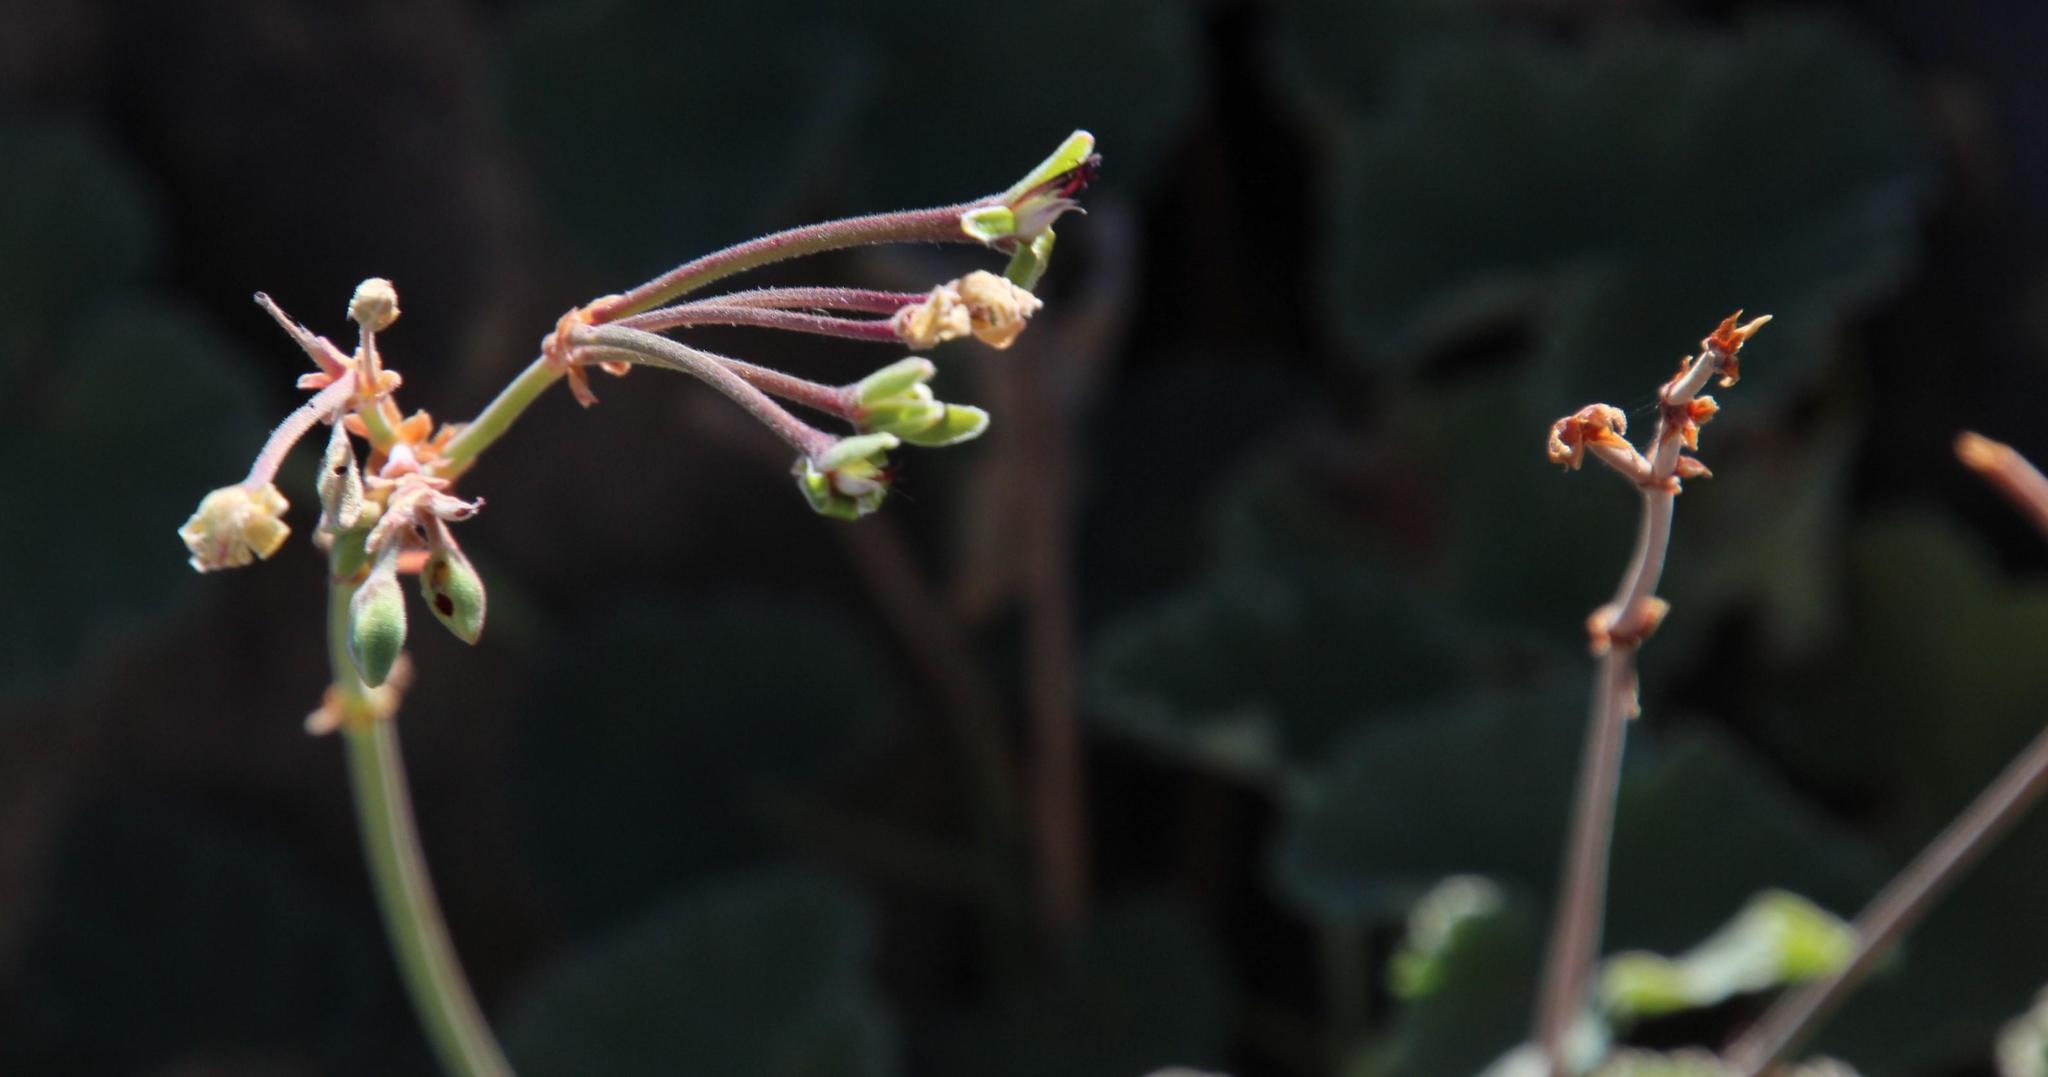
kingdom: Plantae
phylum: Tracheophyta
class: Magnoliopsida
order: Geraniales
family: Geraniaceae
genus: Pelargonium
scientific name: Pelargonium sidoides
